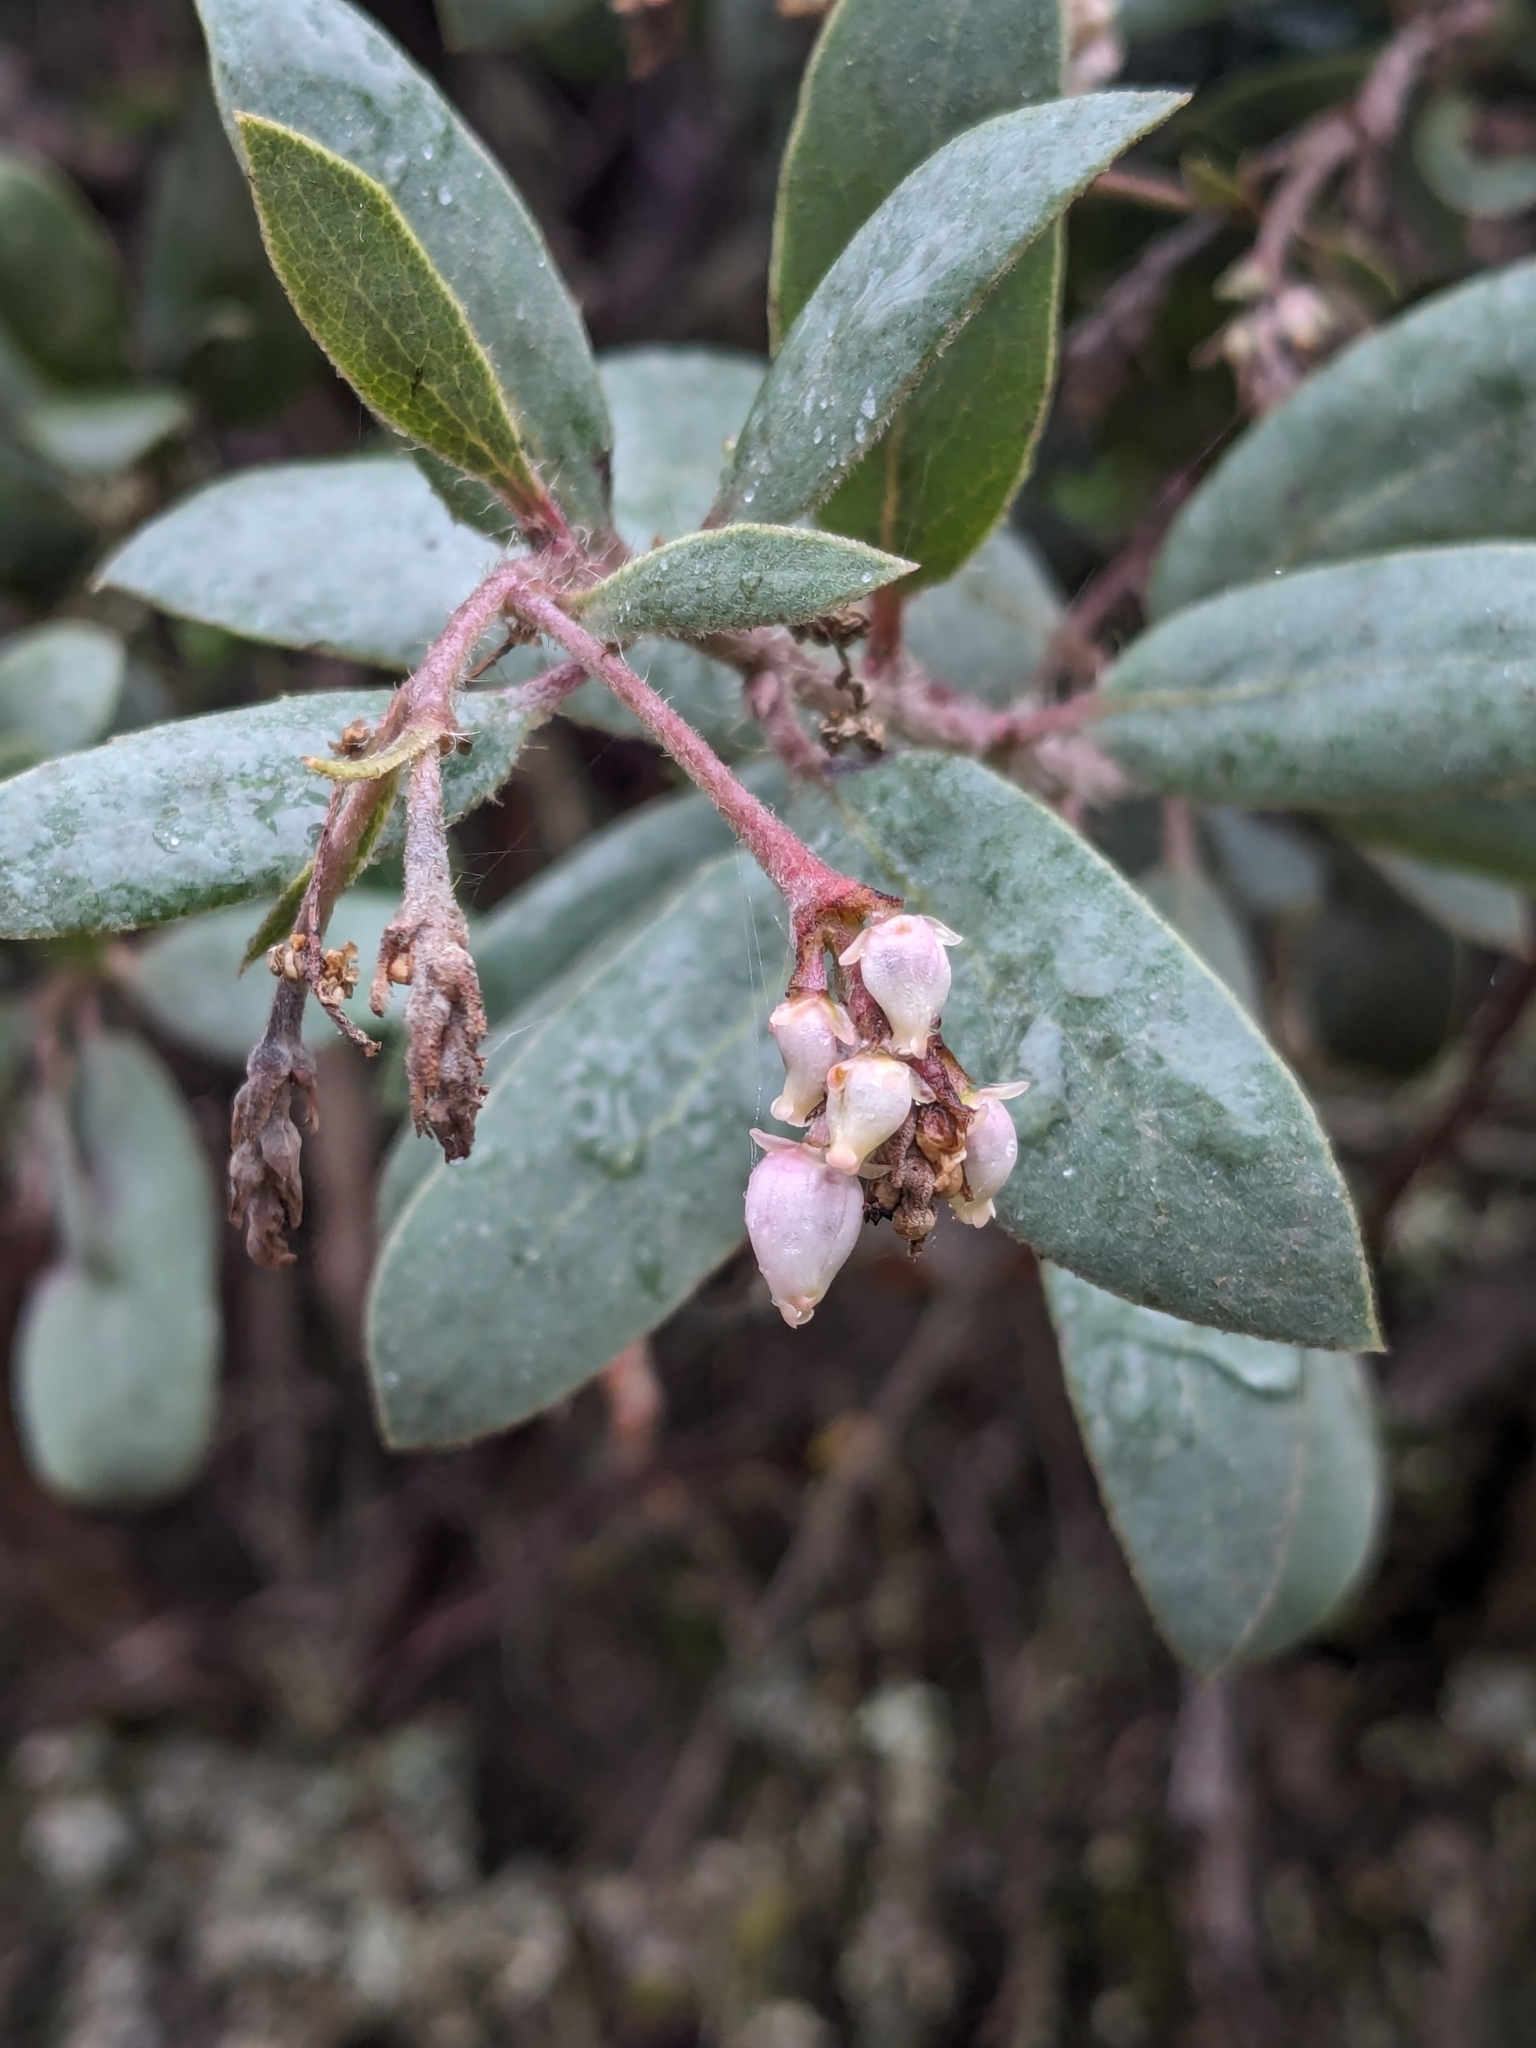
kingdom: Plantae
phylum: Tracheophyta
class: Magnoliopsida
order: Ericales
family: Ericaceae
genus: Arctostaphylos
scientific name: Arctostaphylos crustacea
